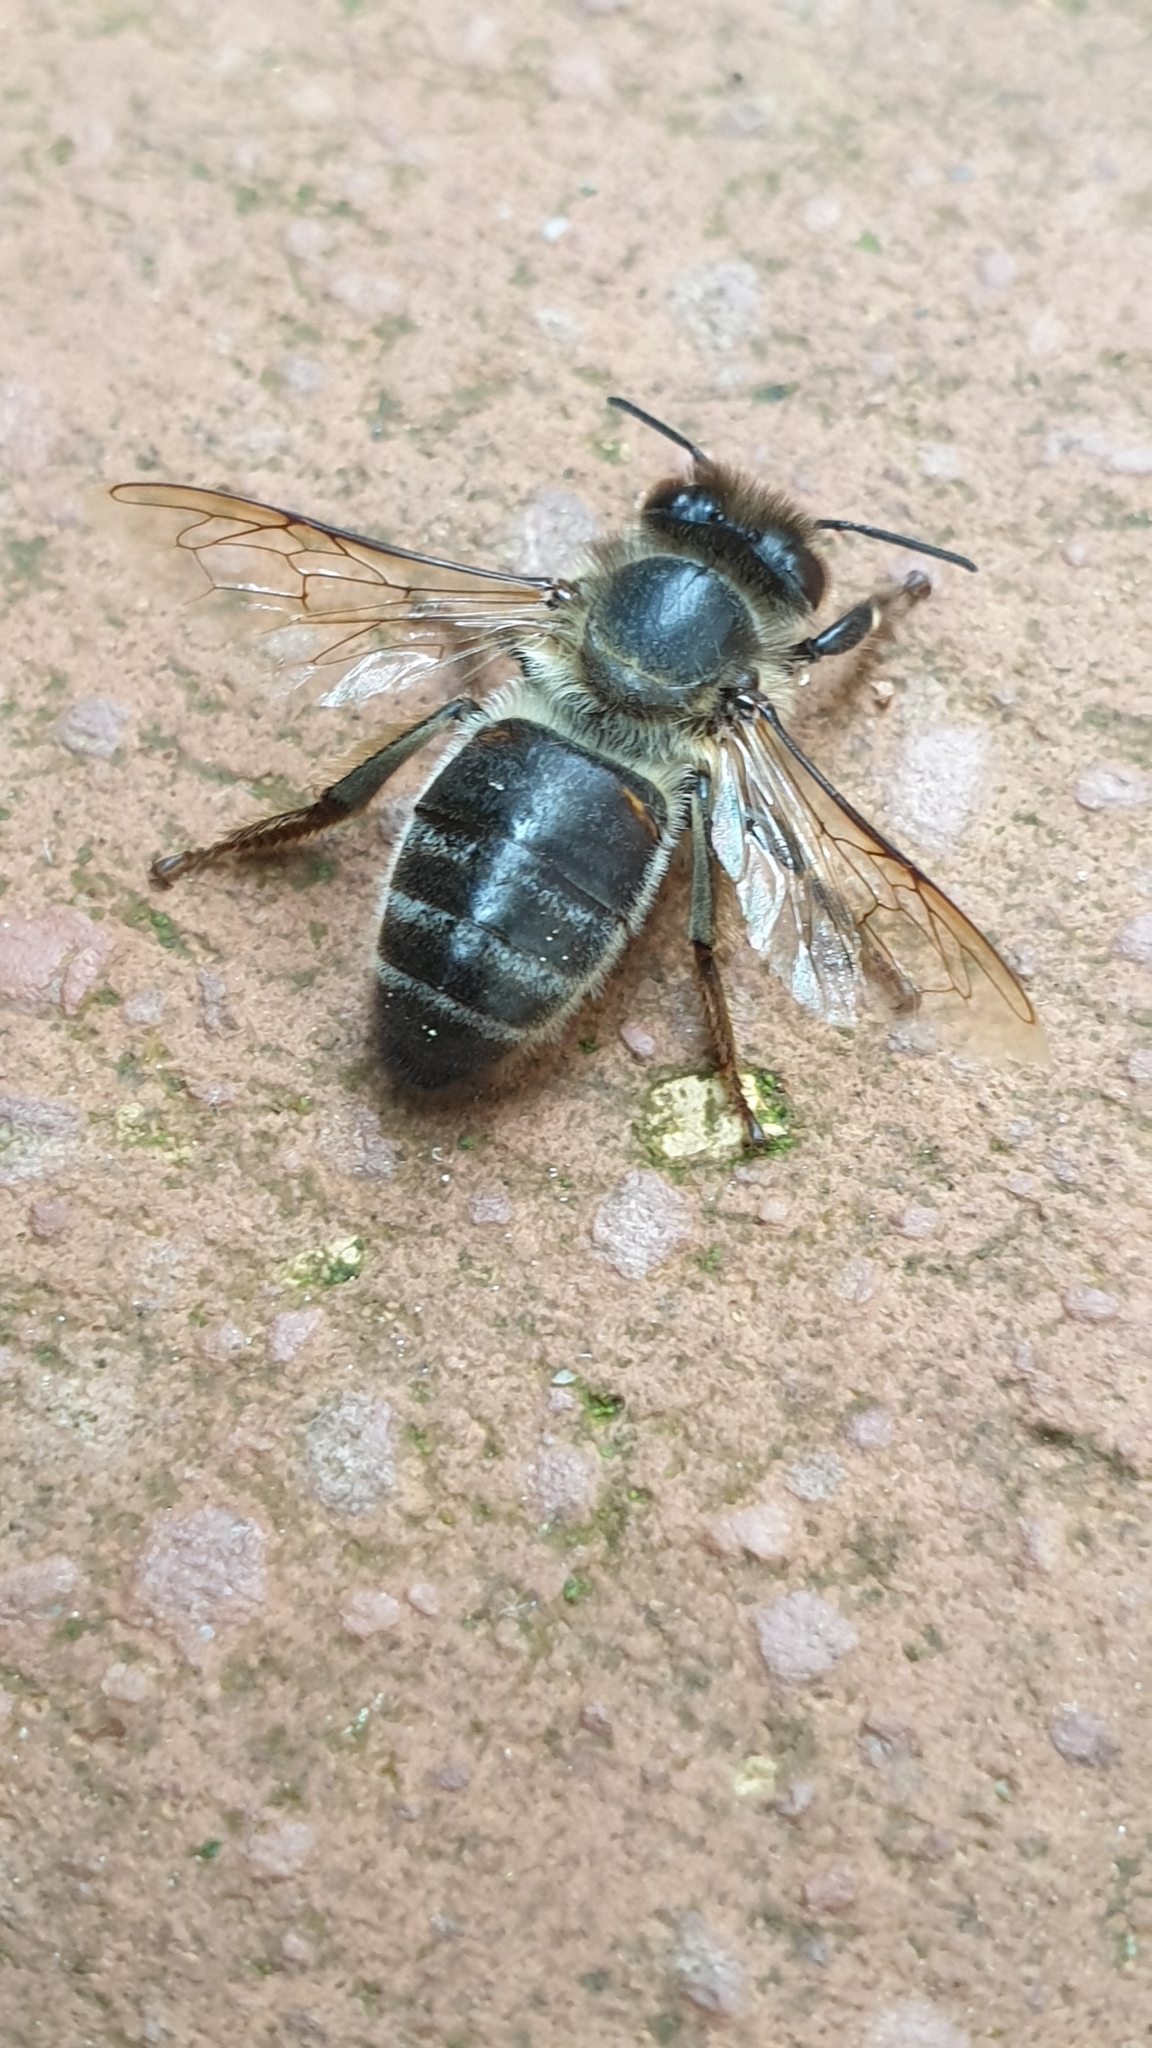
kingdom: Animalia
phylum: Arthropoda
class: Insecta
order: Hymenoptera
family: Apidae
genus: Apis
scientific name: Apis mellifera
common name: Honey bee
